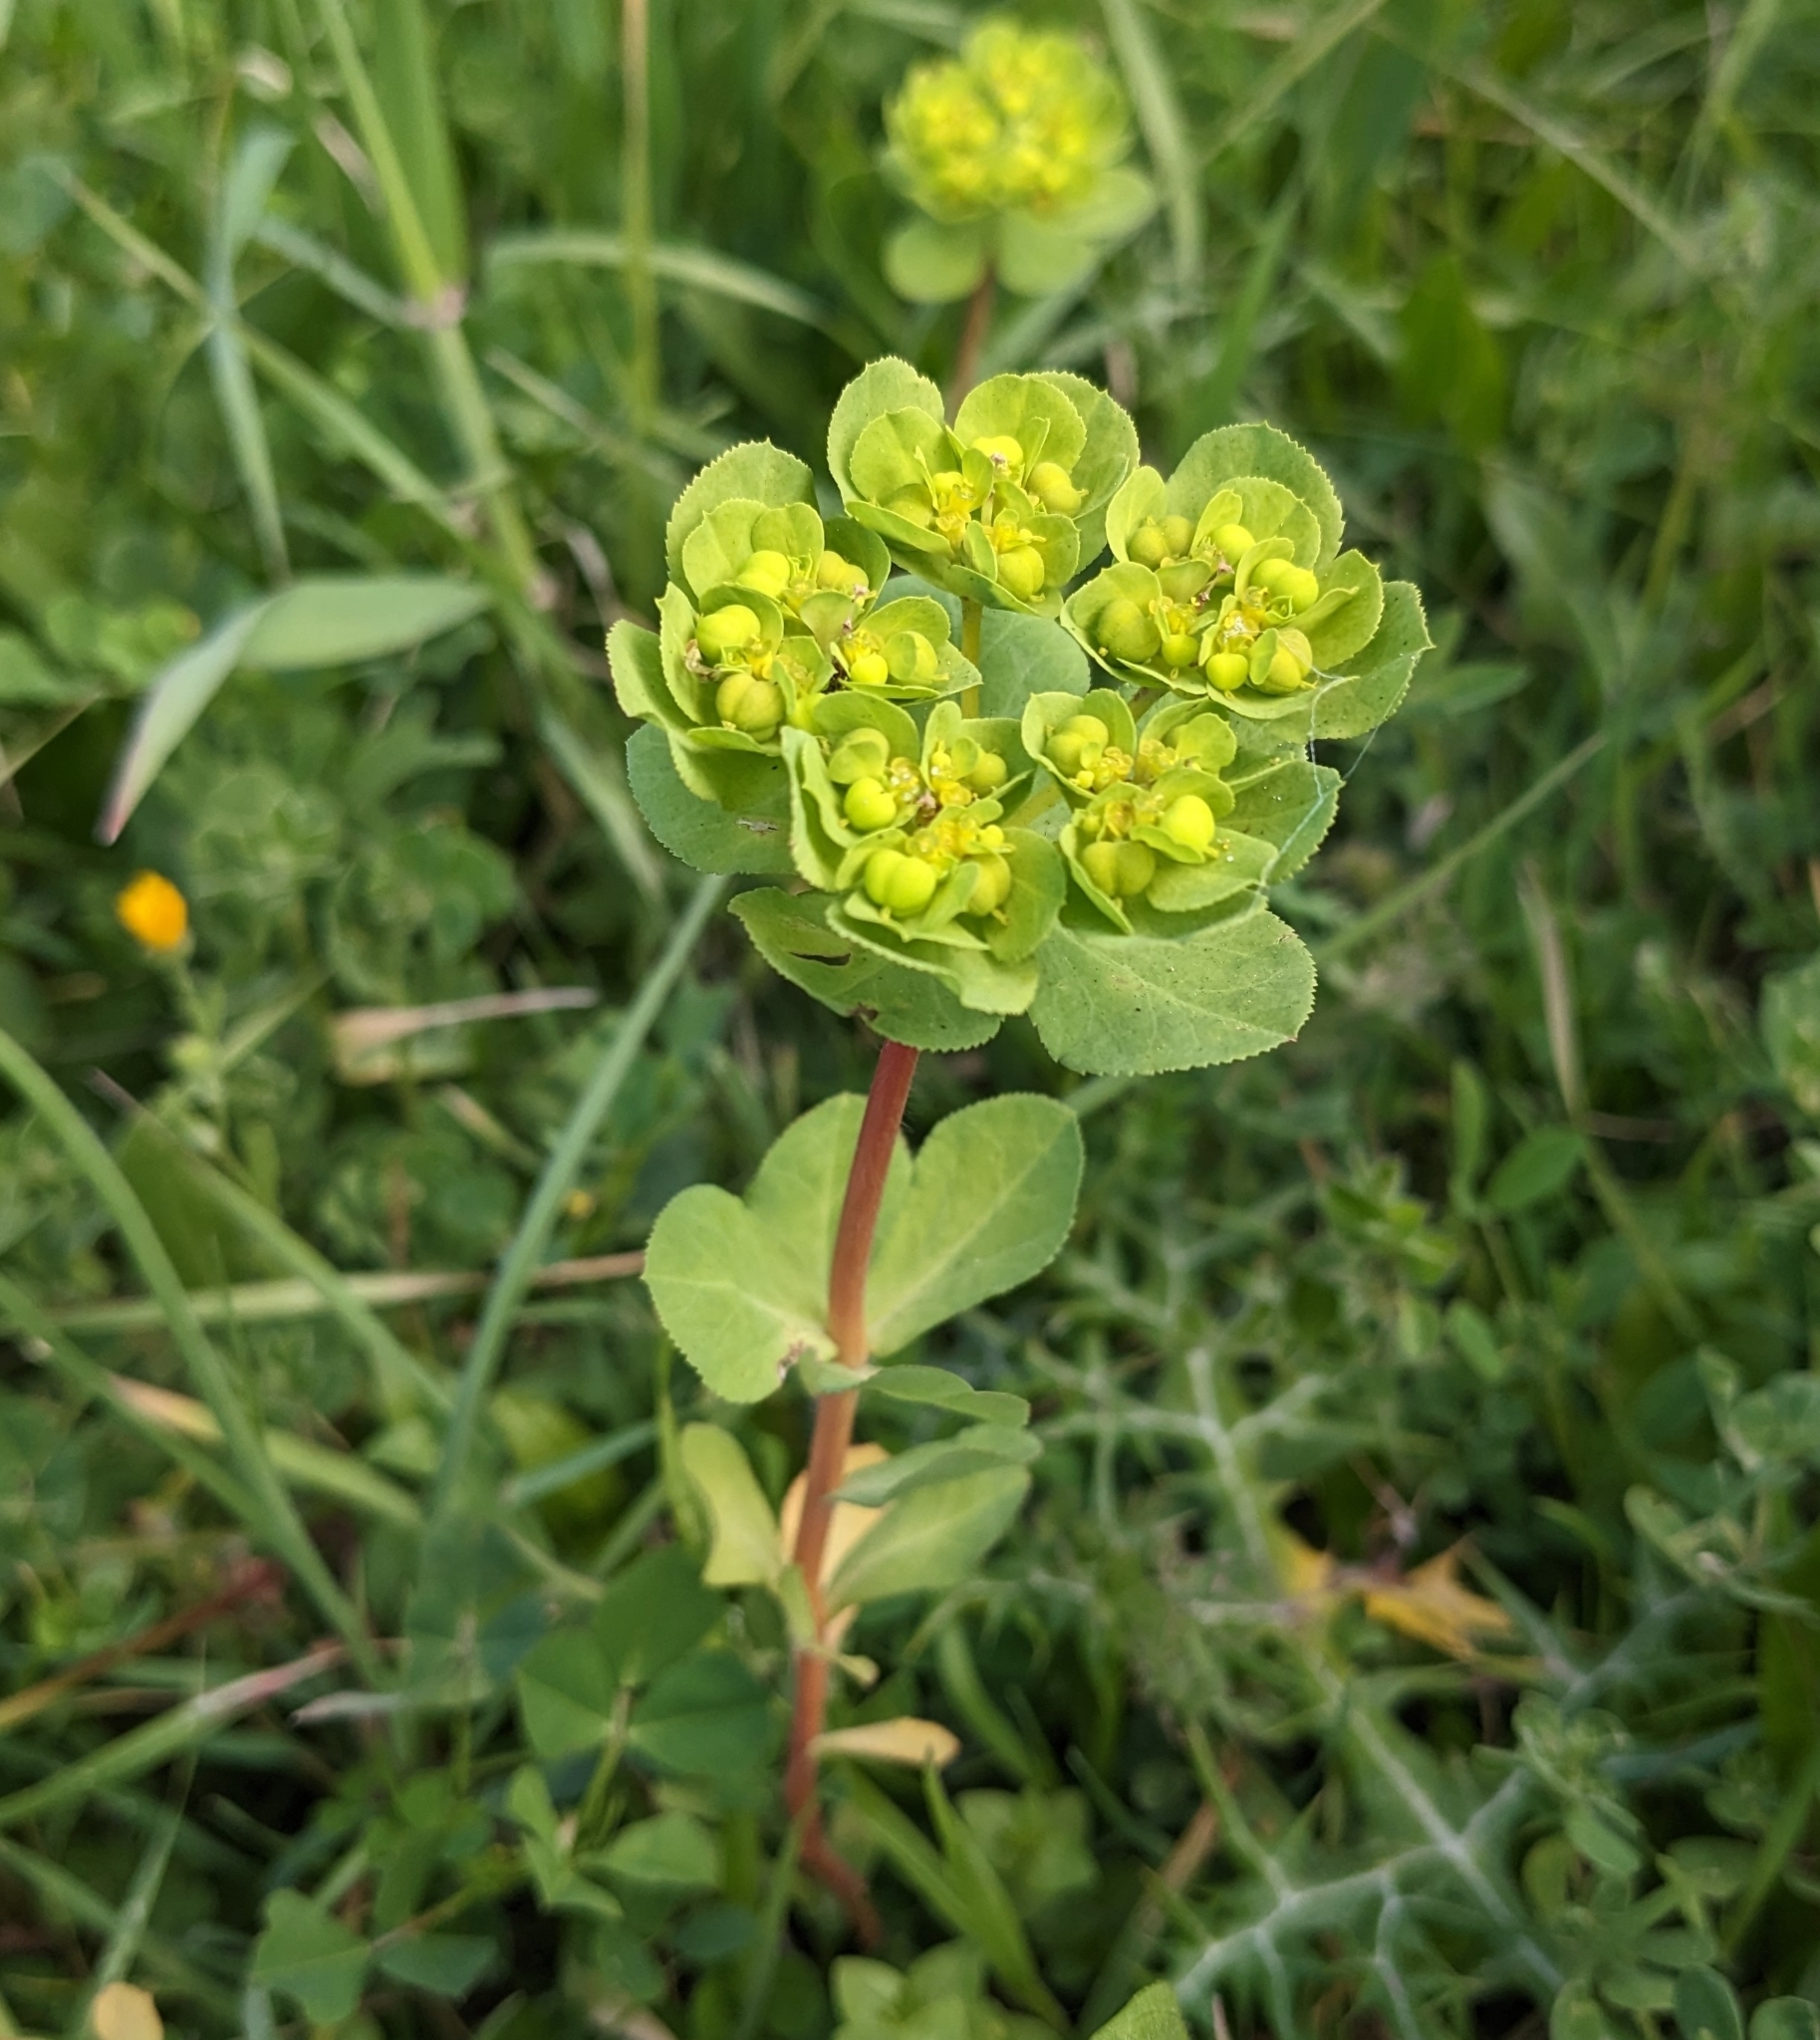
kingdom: Plantae
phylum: Tracheophyta
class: Magnoliopsida
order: Malpighiales
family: Euphorbiaceae
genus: Euphorbia
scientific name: Euphorbia helioscopia
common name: Sun spurge
